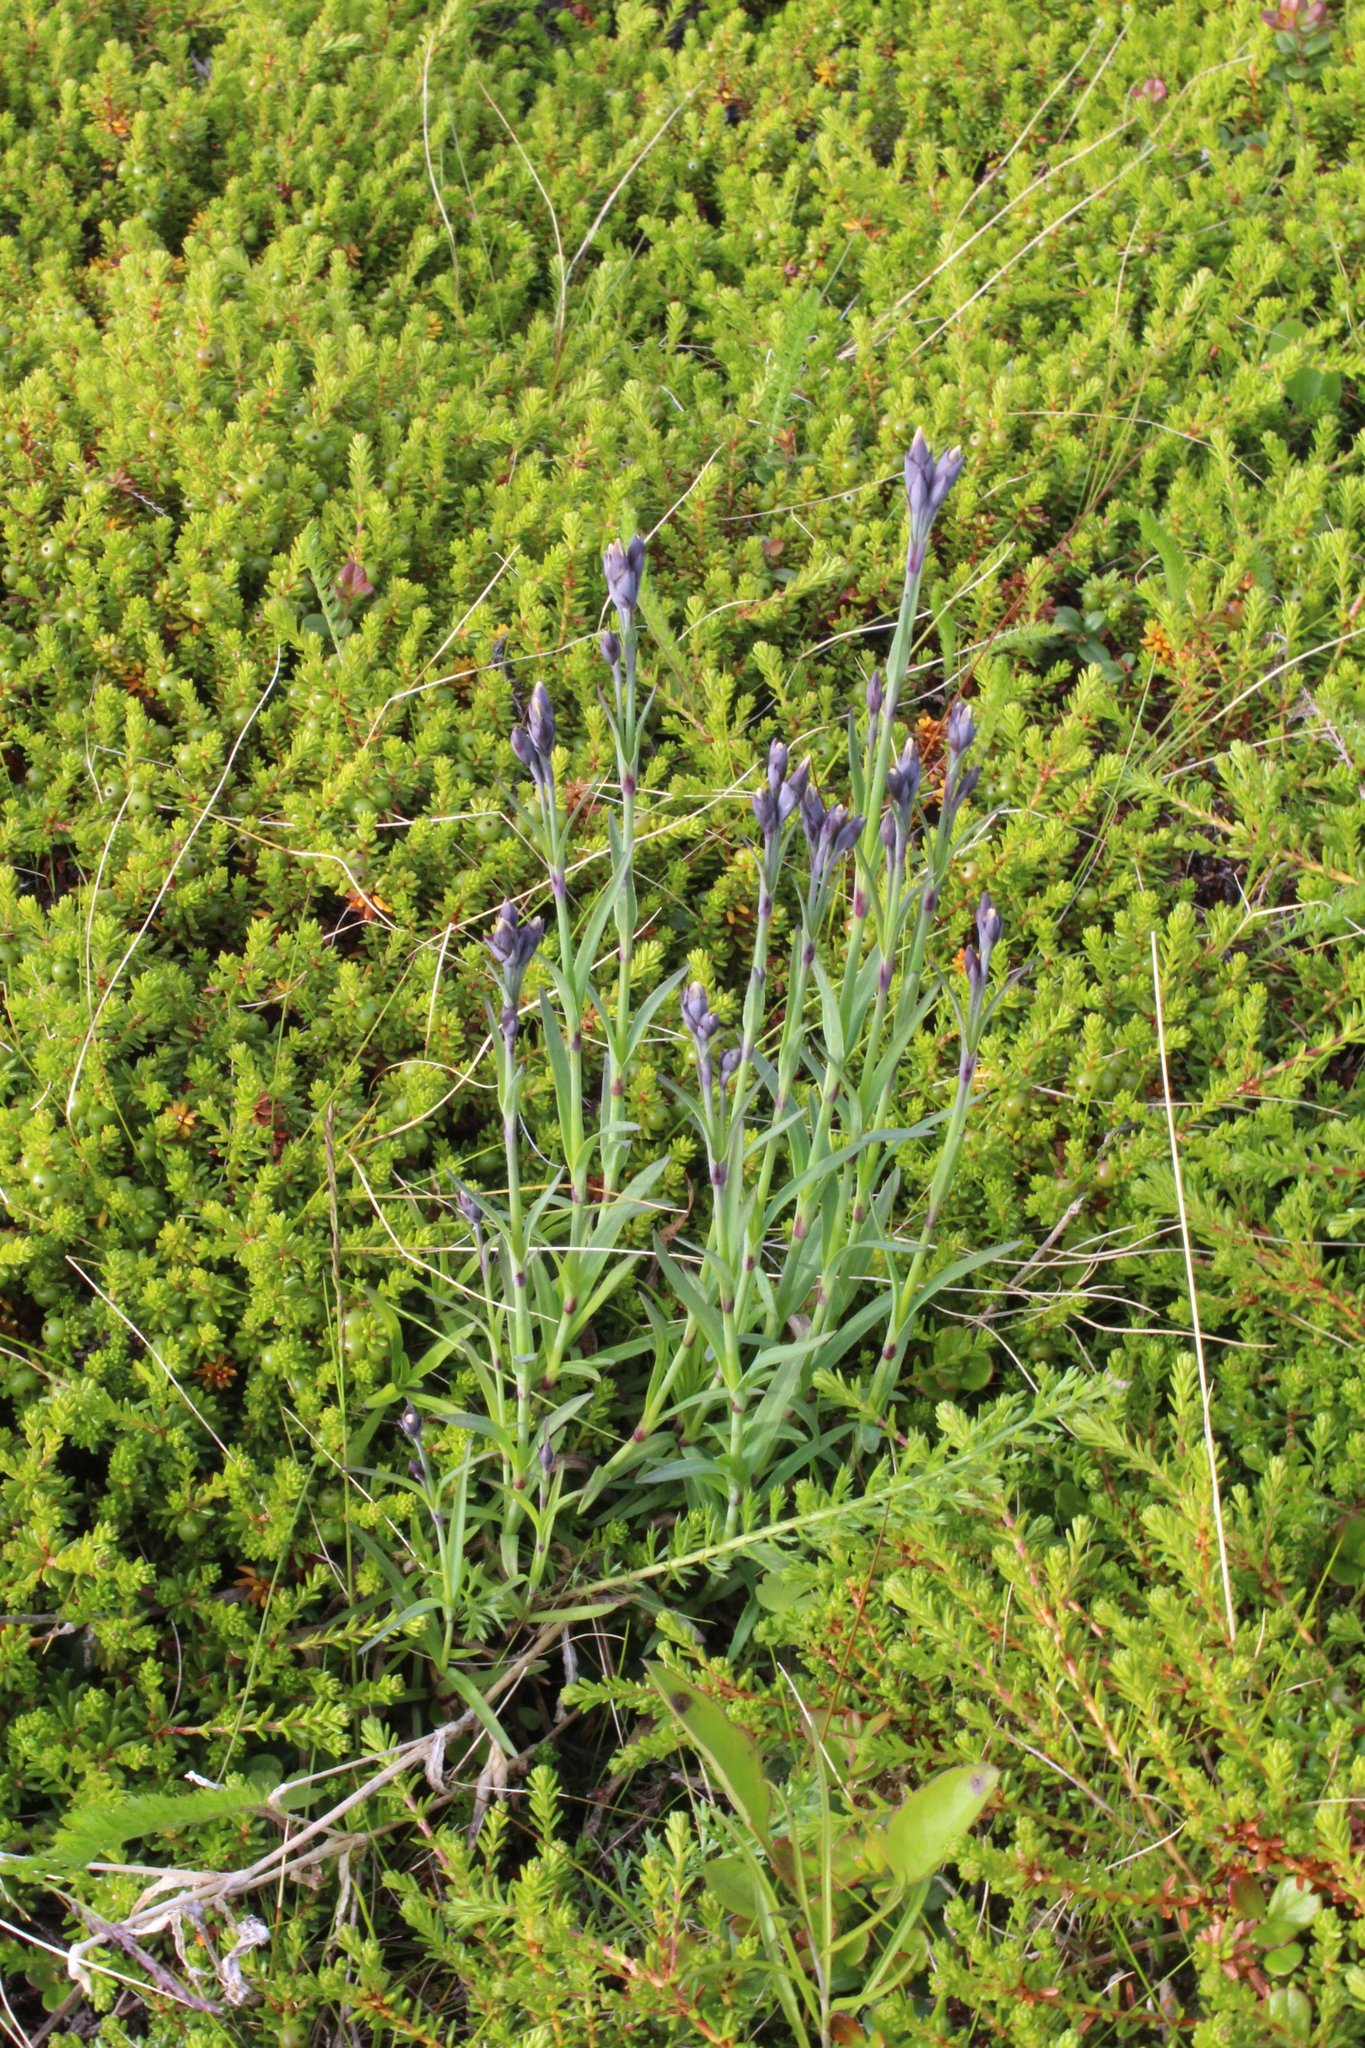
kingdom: Plantae
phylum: Tracheophyta
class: Magnoliopsida
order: Caryophyllales
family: Caryophyllaceae
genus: Dianthus
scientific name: Dianthus superbus
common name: Fringed pink
